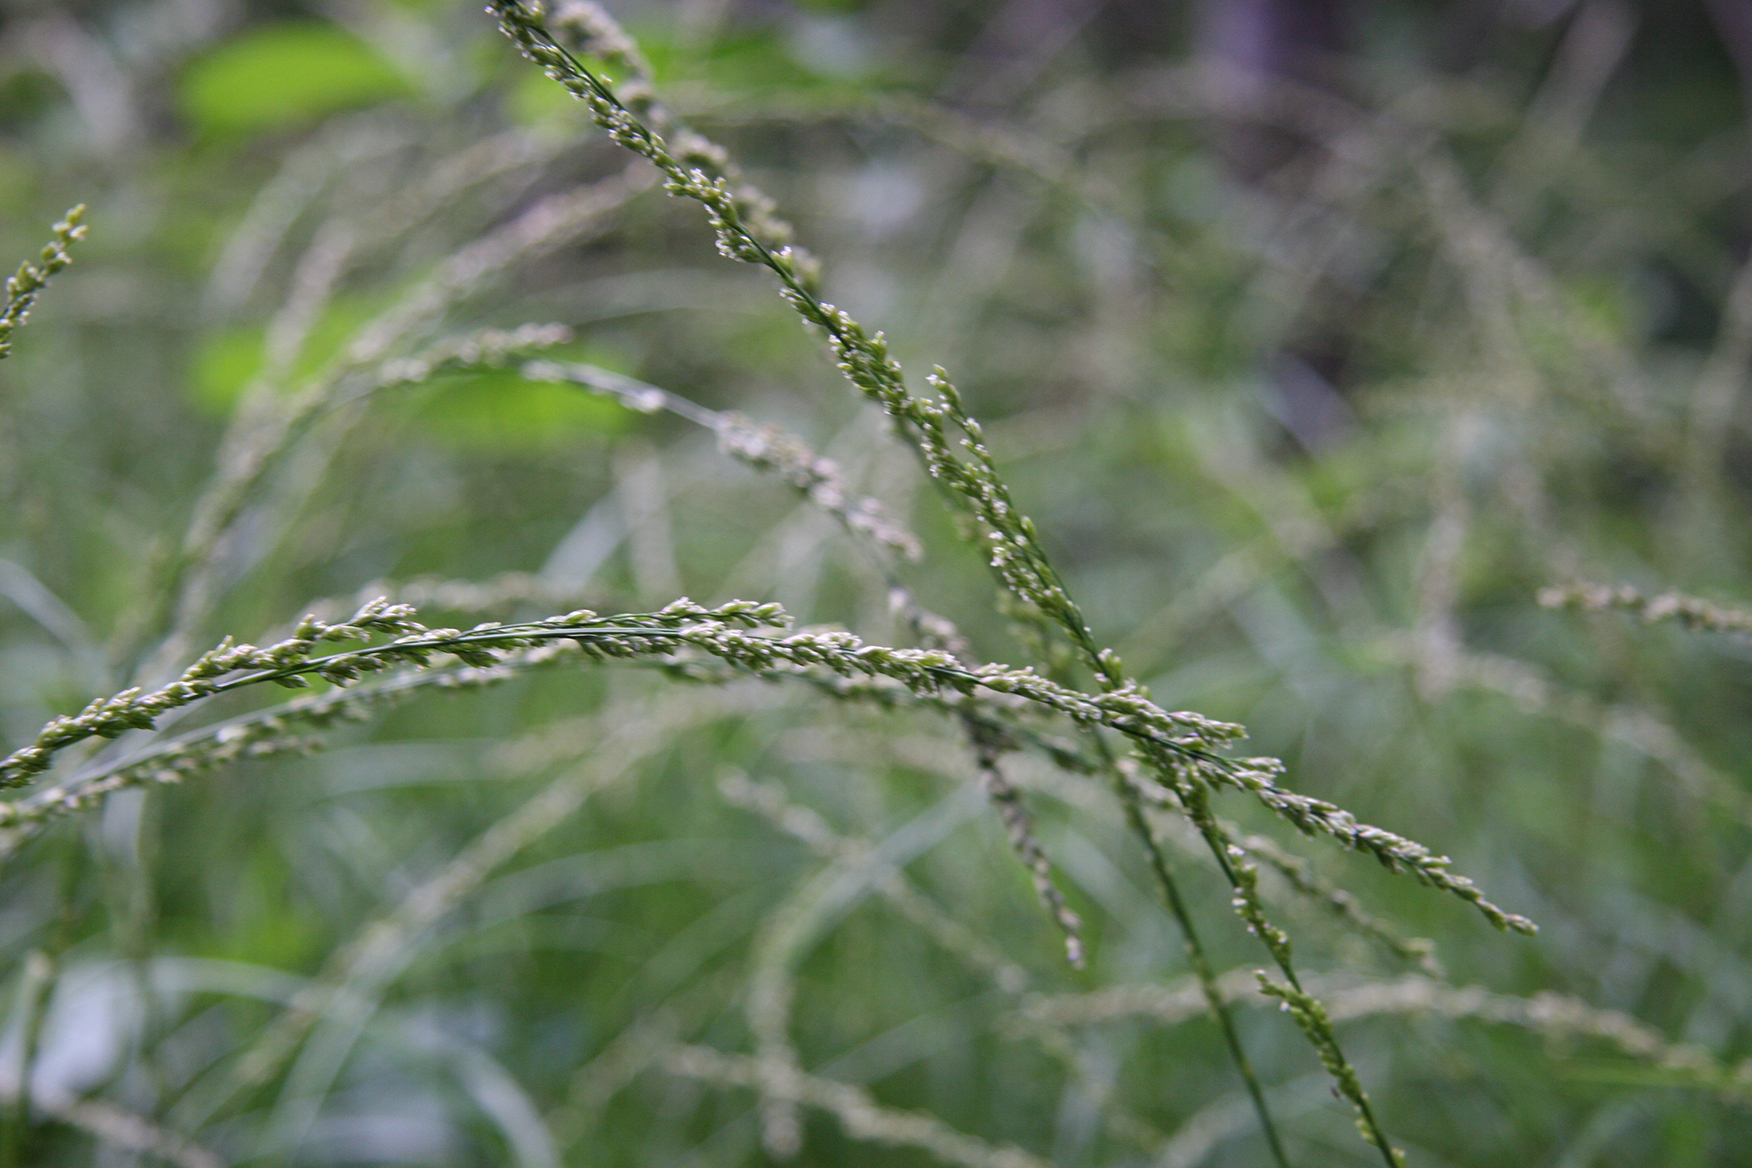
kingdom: Plantae
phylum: Tracheophyta
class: Liliopsida
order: Poales
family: Poaceae
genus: Glyceria
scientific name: Glyceria melicaria
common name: Long mannagrass
